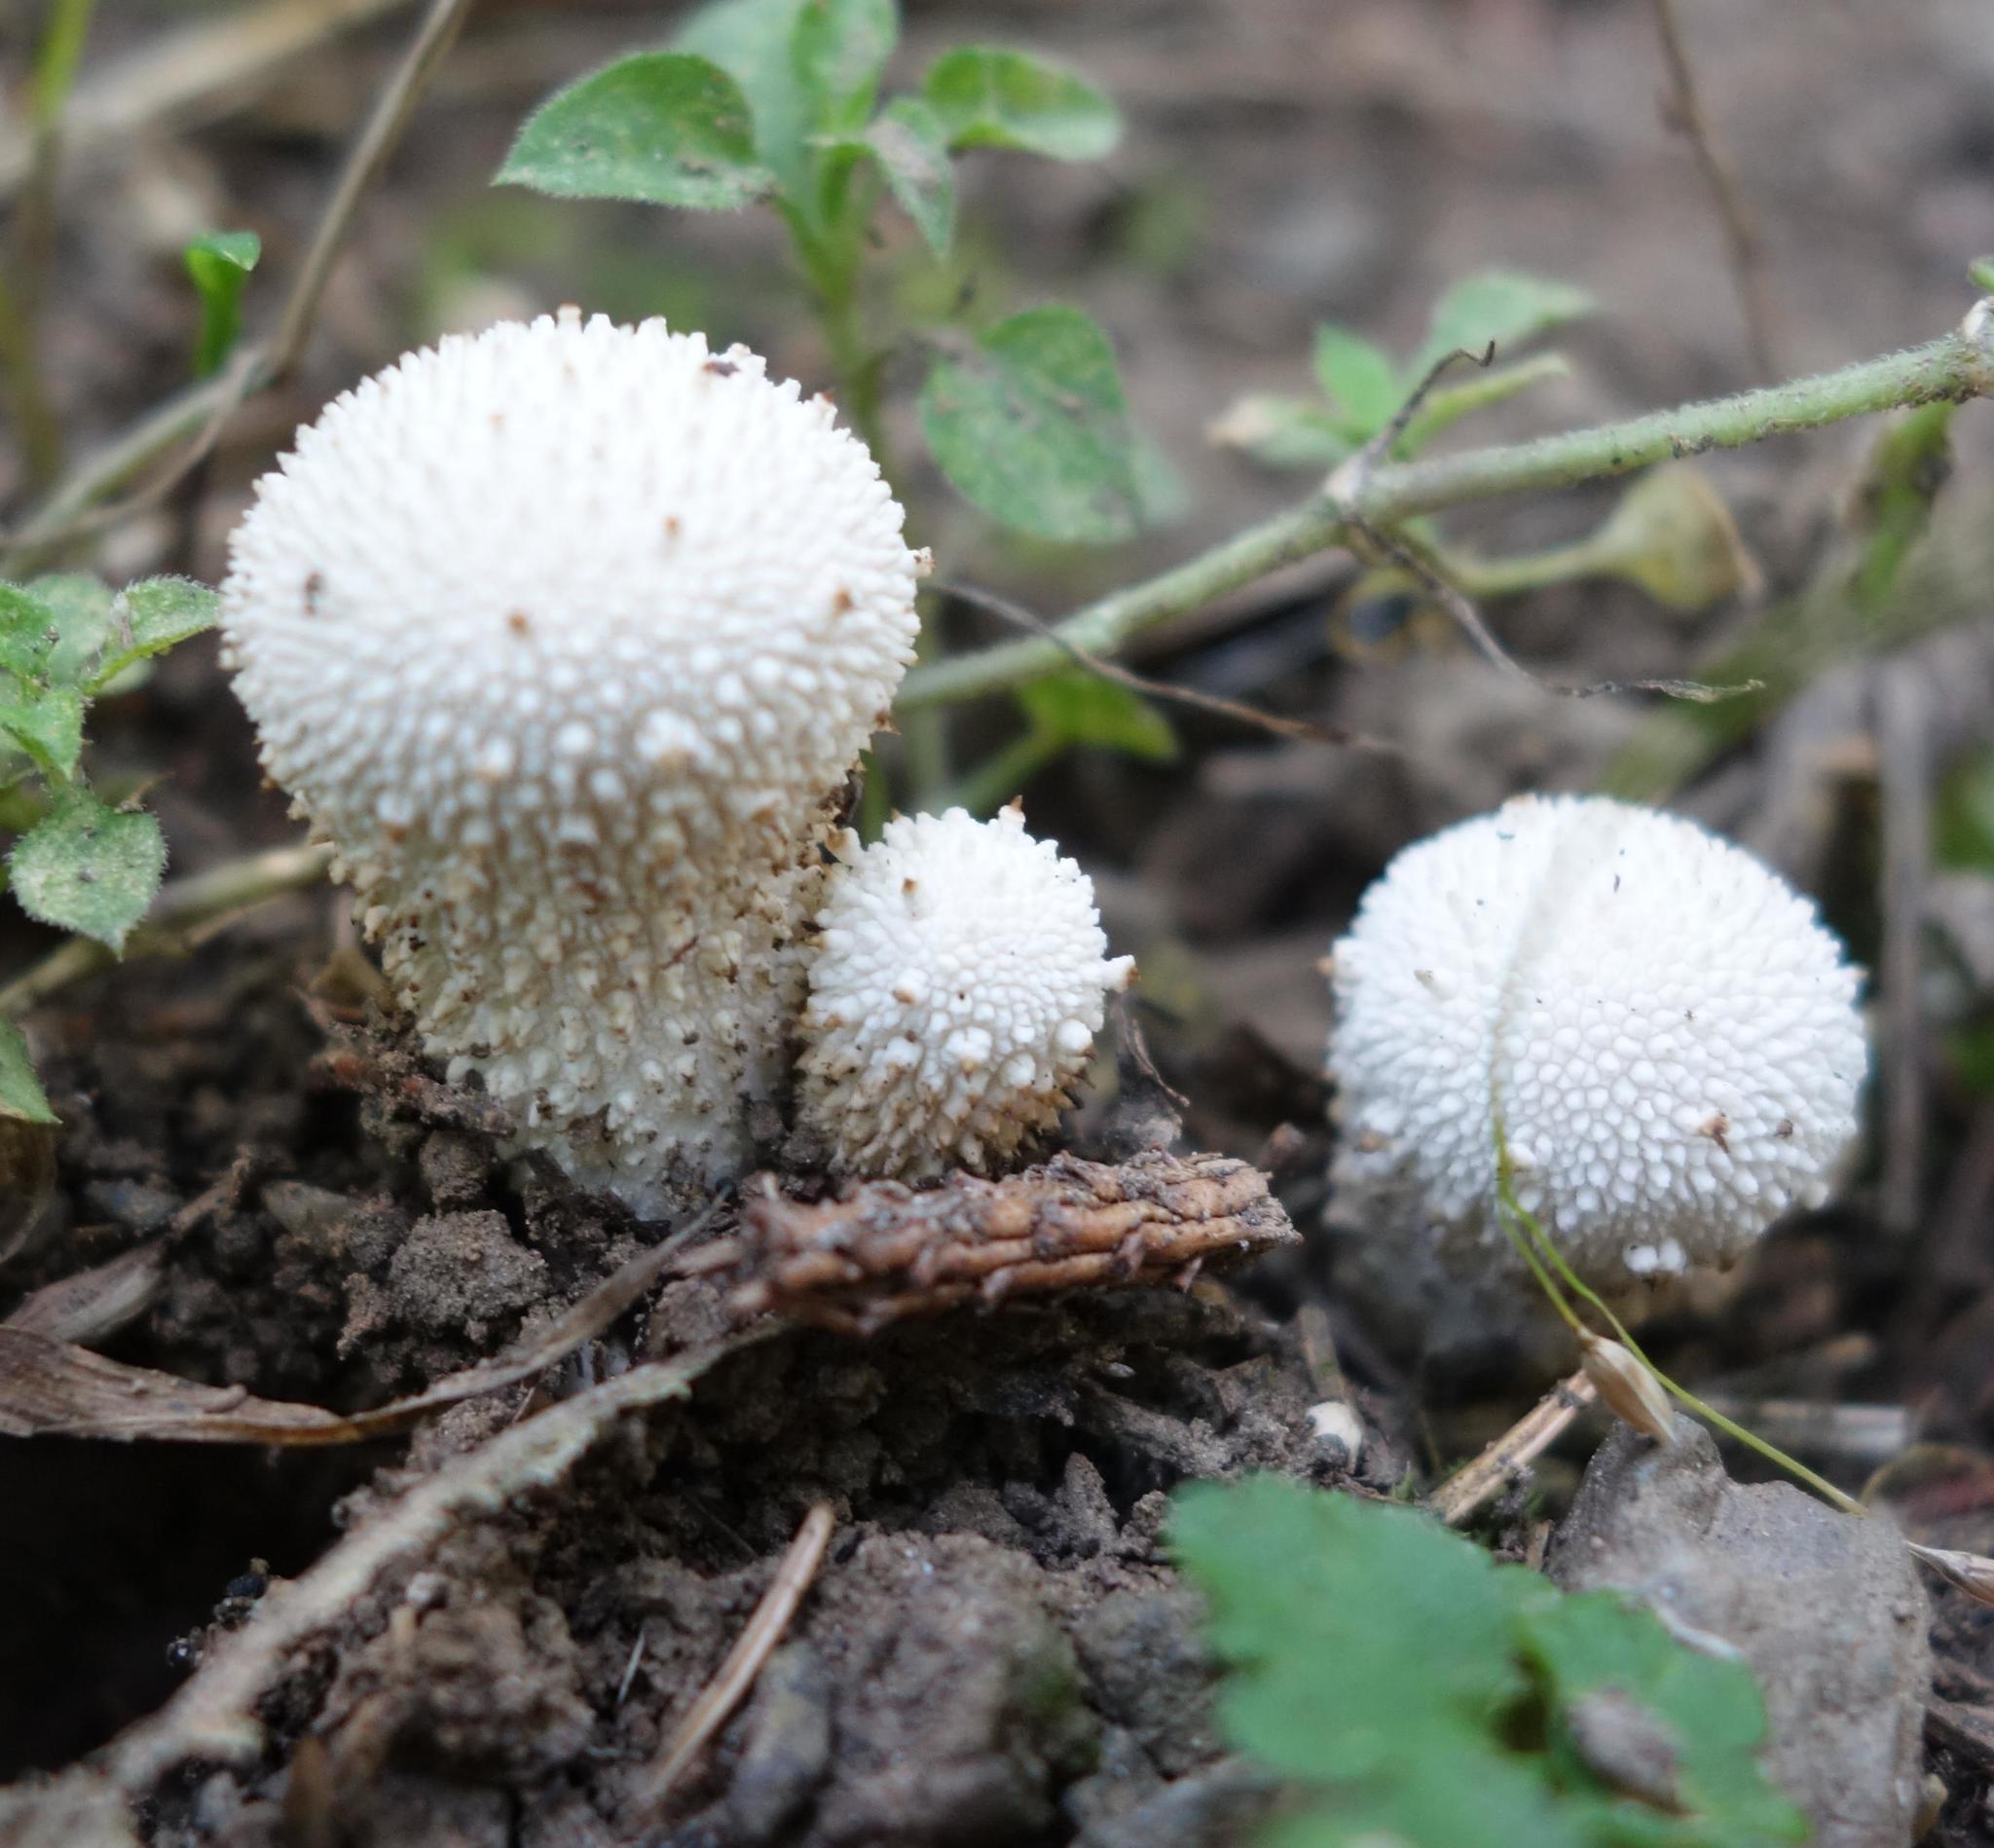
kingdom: Fungi
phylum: Basidiomycota
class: Agaricomycetes
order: Agaricales
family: Lycoperdaceae
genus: Lycoperdon
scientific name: Lycoperdon perlatum
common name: Common puffball
